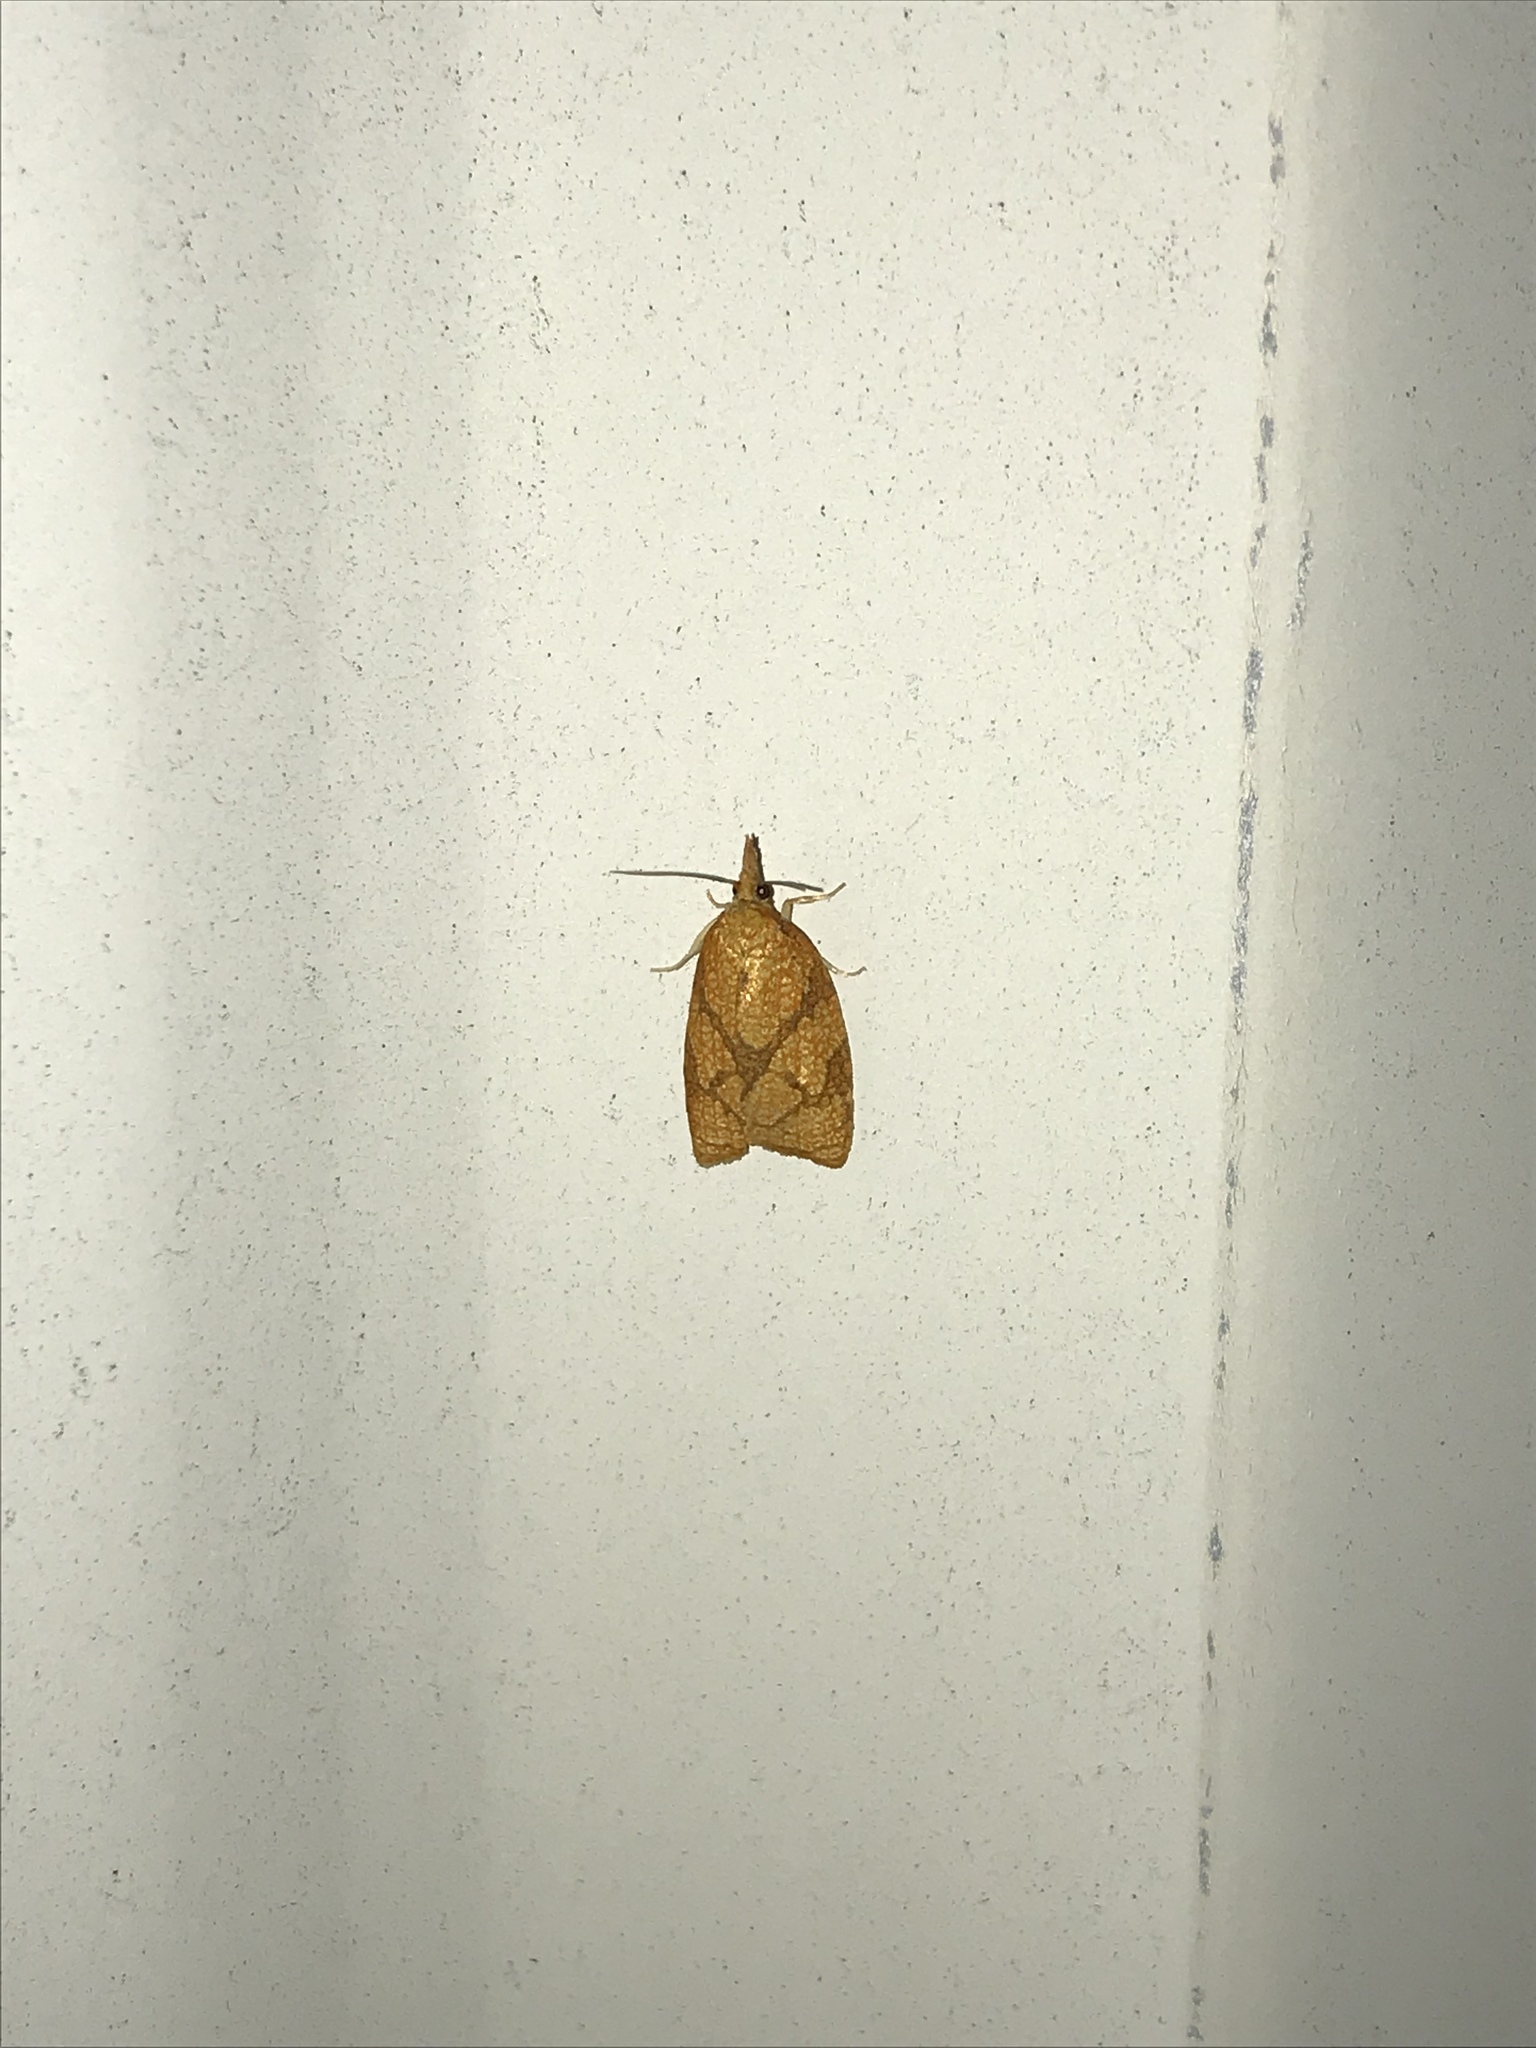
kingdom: Animalia
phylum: Arthropoda
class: Insecta
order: Lepidoptera
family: Tortricidae
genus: Cenopis
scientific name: Cenopis reticulatana
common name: Reticulated fruitworm moth
